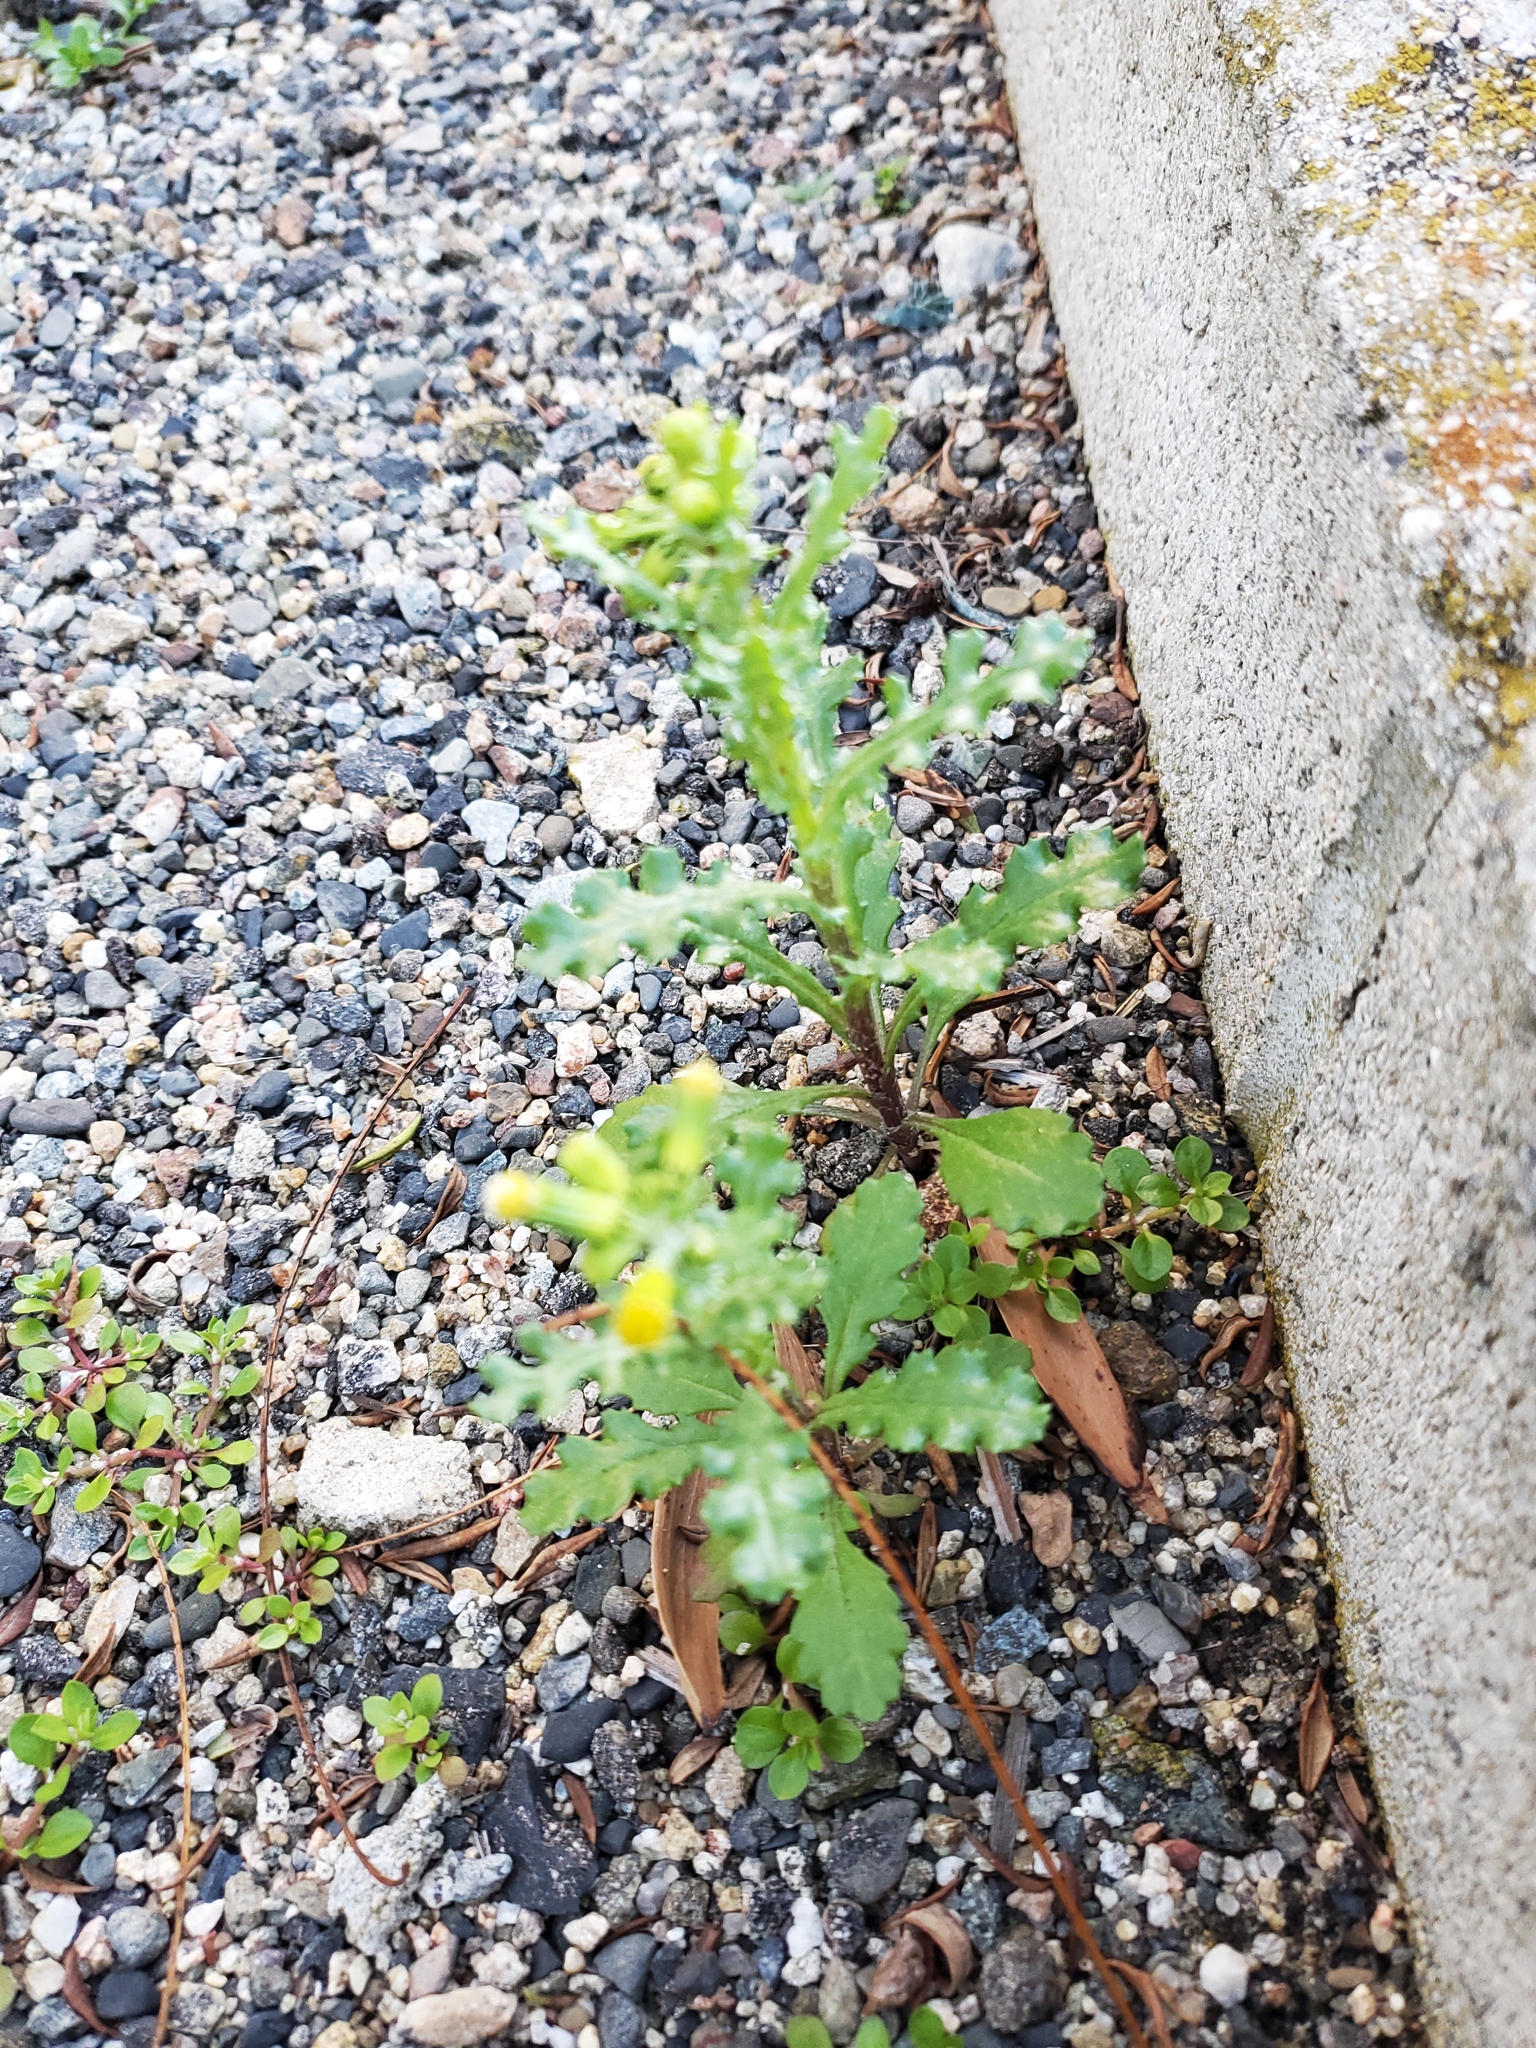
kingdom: Plantae
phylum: Tracheophyta
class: Magnoliopsida
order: Asterales
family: Asteraceae
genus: Senecio
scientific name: Senecio vulgaris
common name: Old-man-in-the-spring
